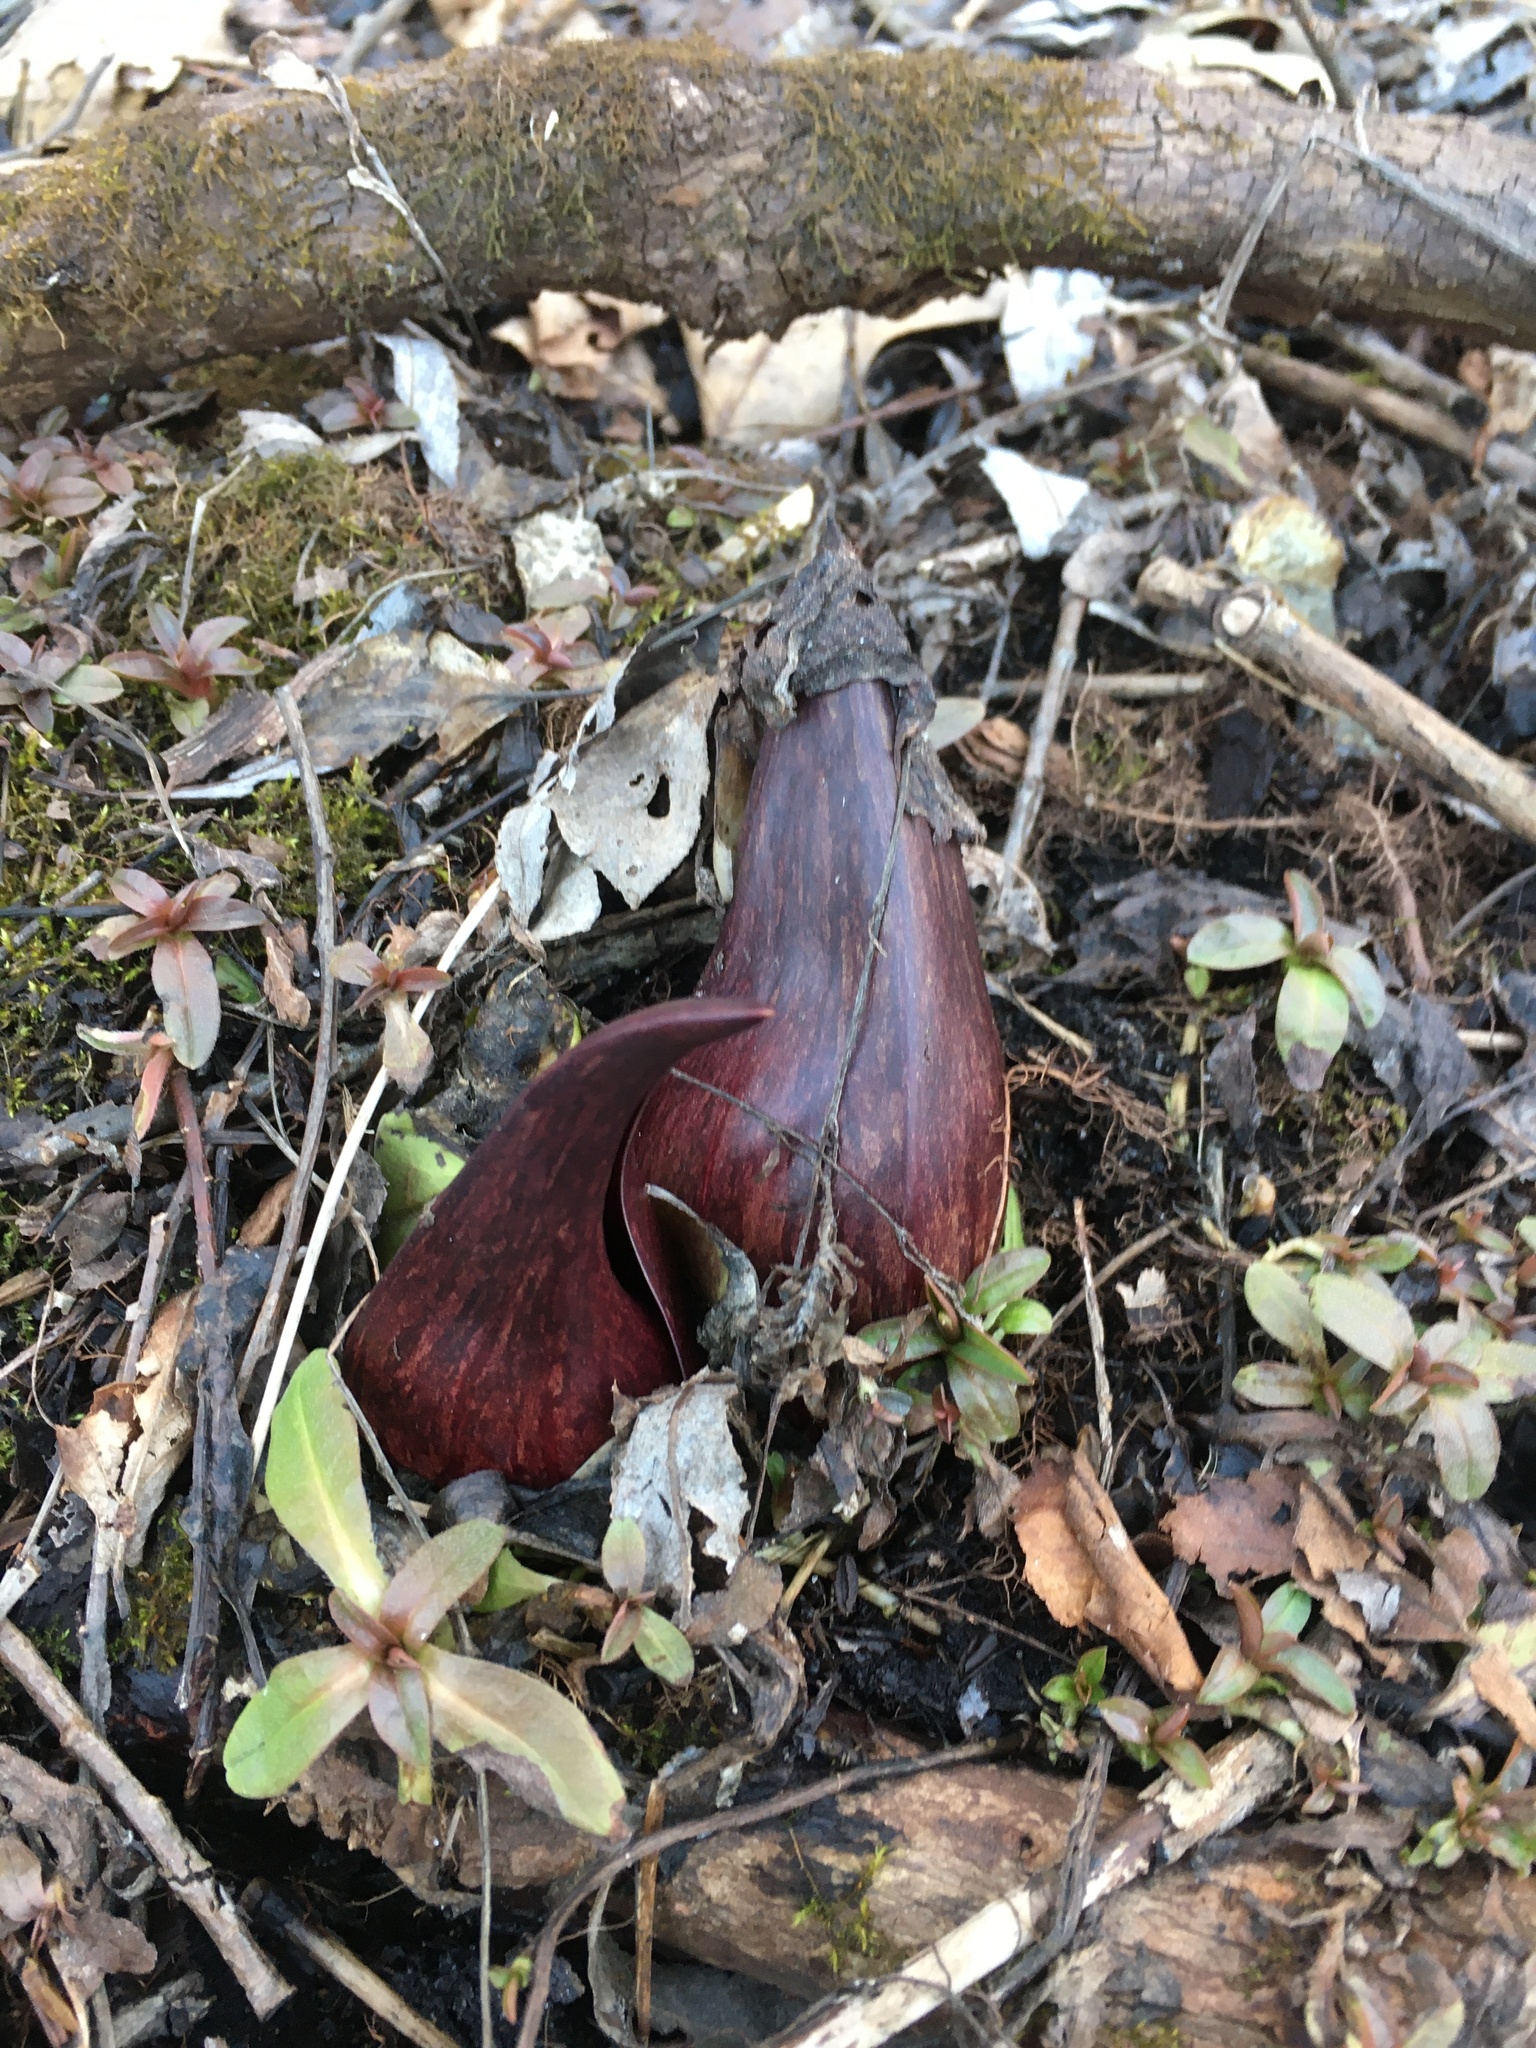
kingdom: Plantae
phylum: Tracheophyta
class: Liliopsida
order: Alismatales
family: Araceae
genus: Symplocarpus
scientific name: Symplocarpus foetidus
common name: Eastern skunk cabbage
